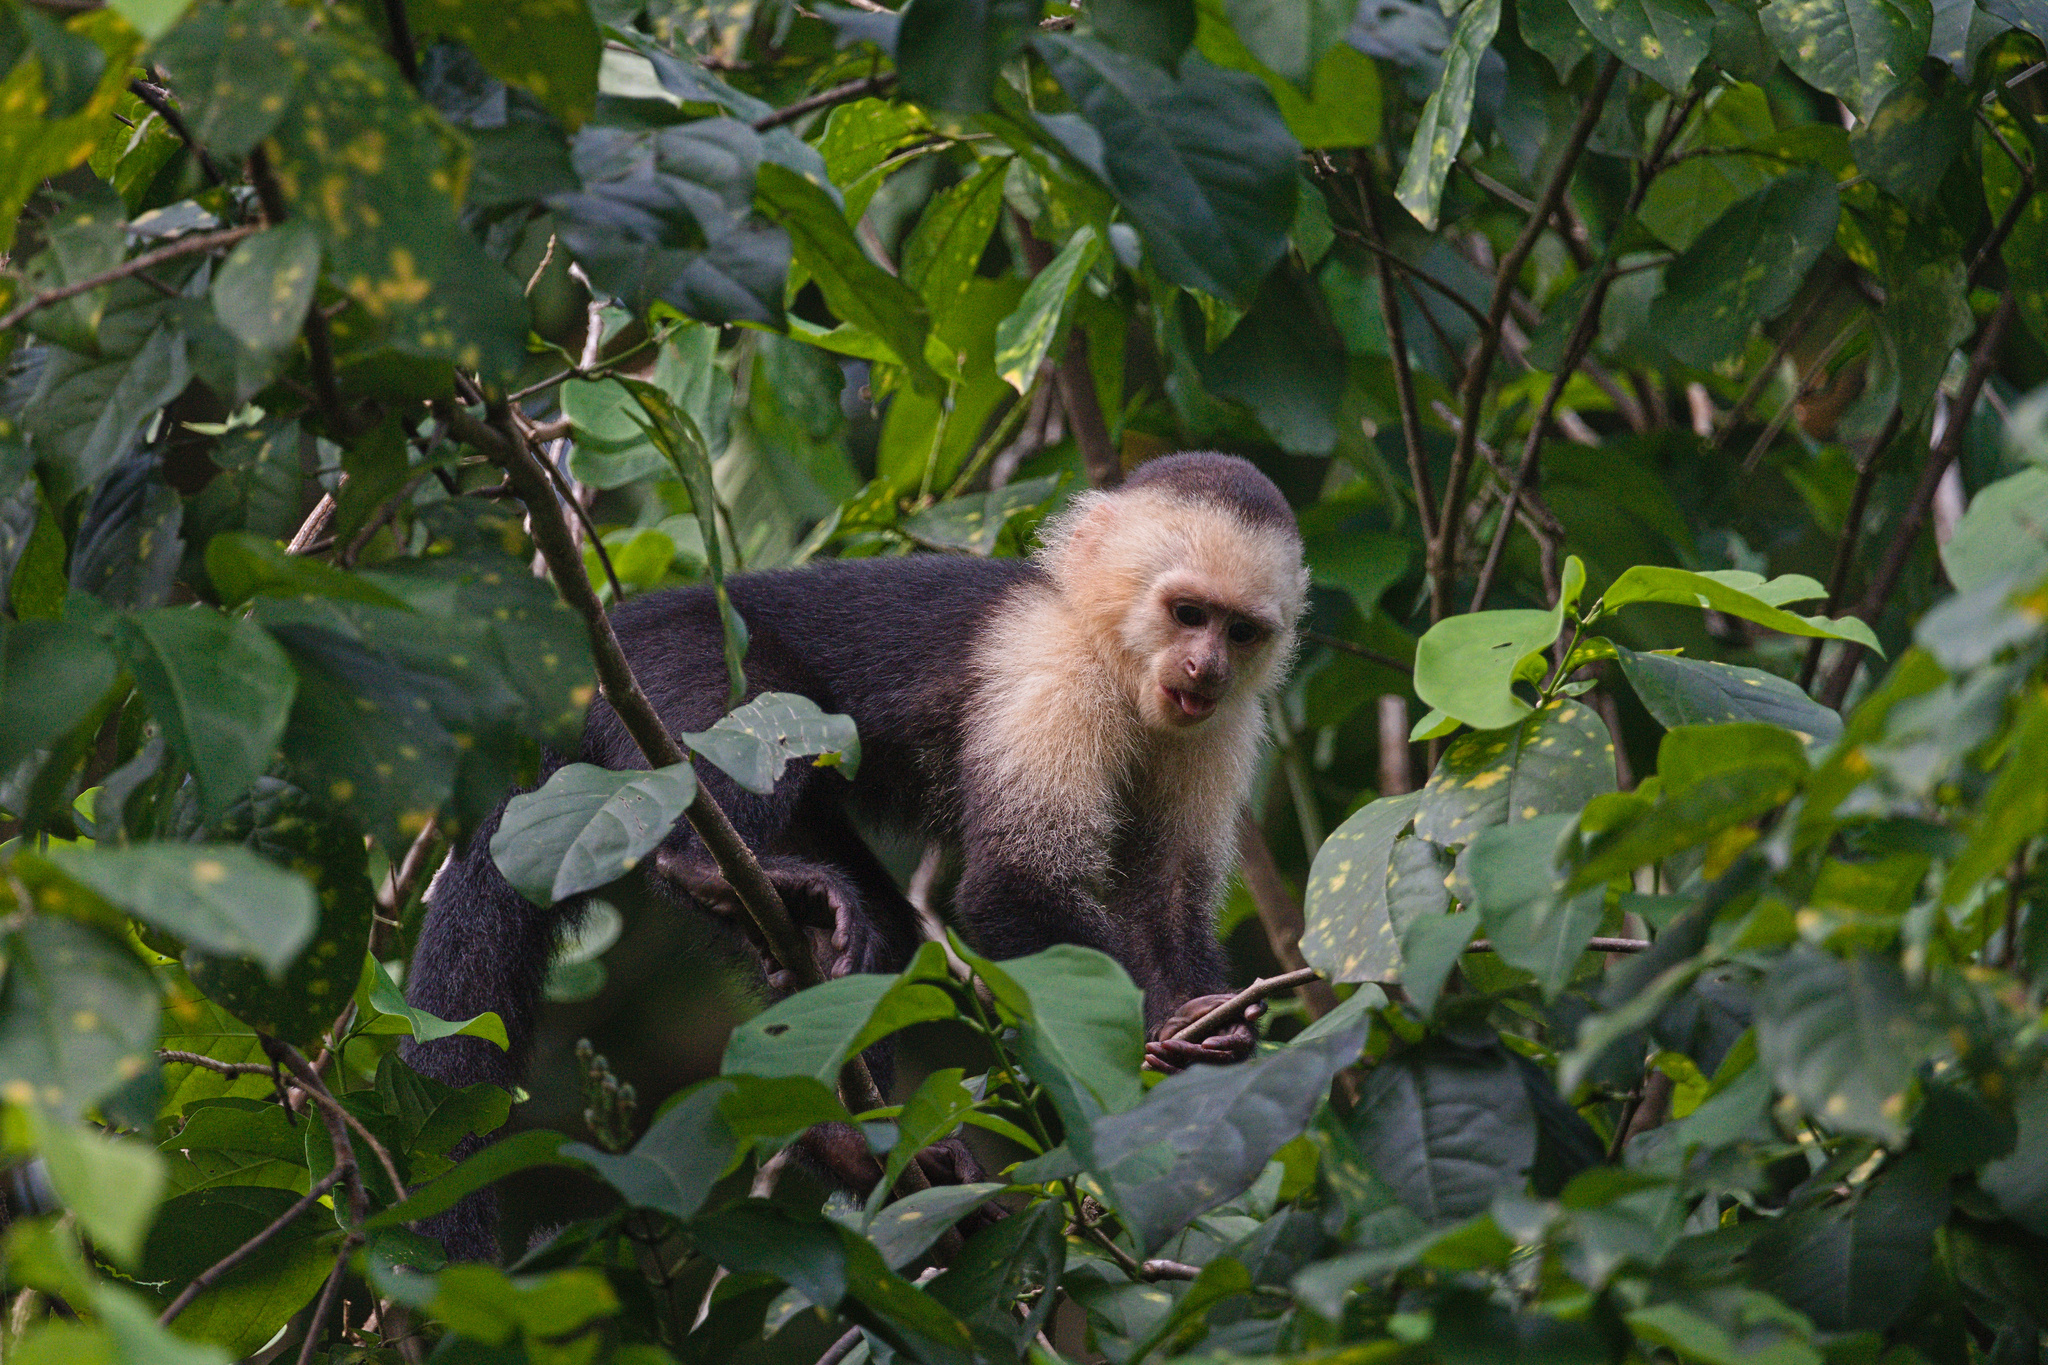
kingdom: Animalia
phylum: Chordata
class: Mammalia
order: Primates
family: Cebidae
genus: Cebus
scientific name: Cebus imitator
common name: Panamanian white-faced capuchin
